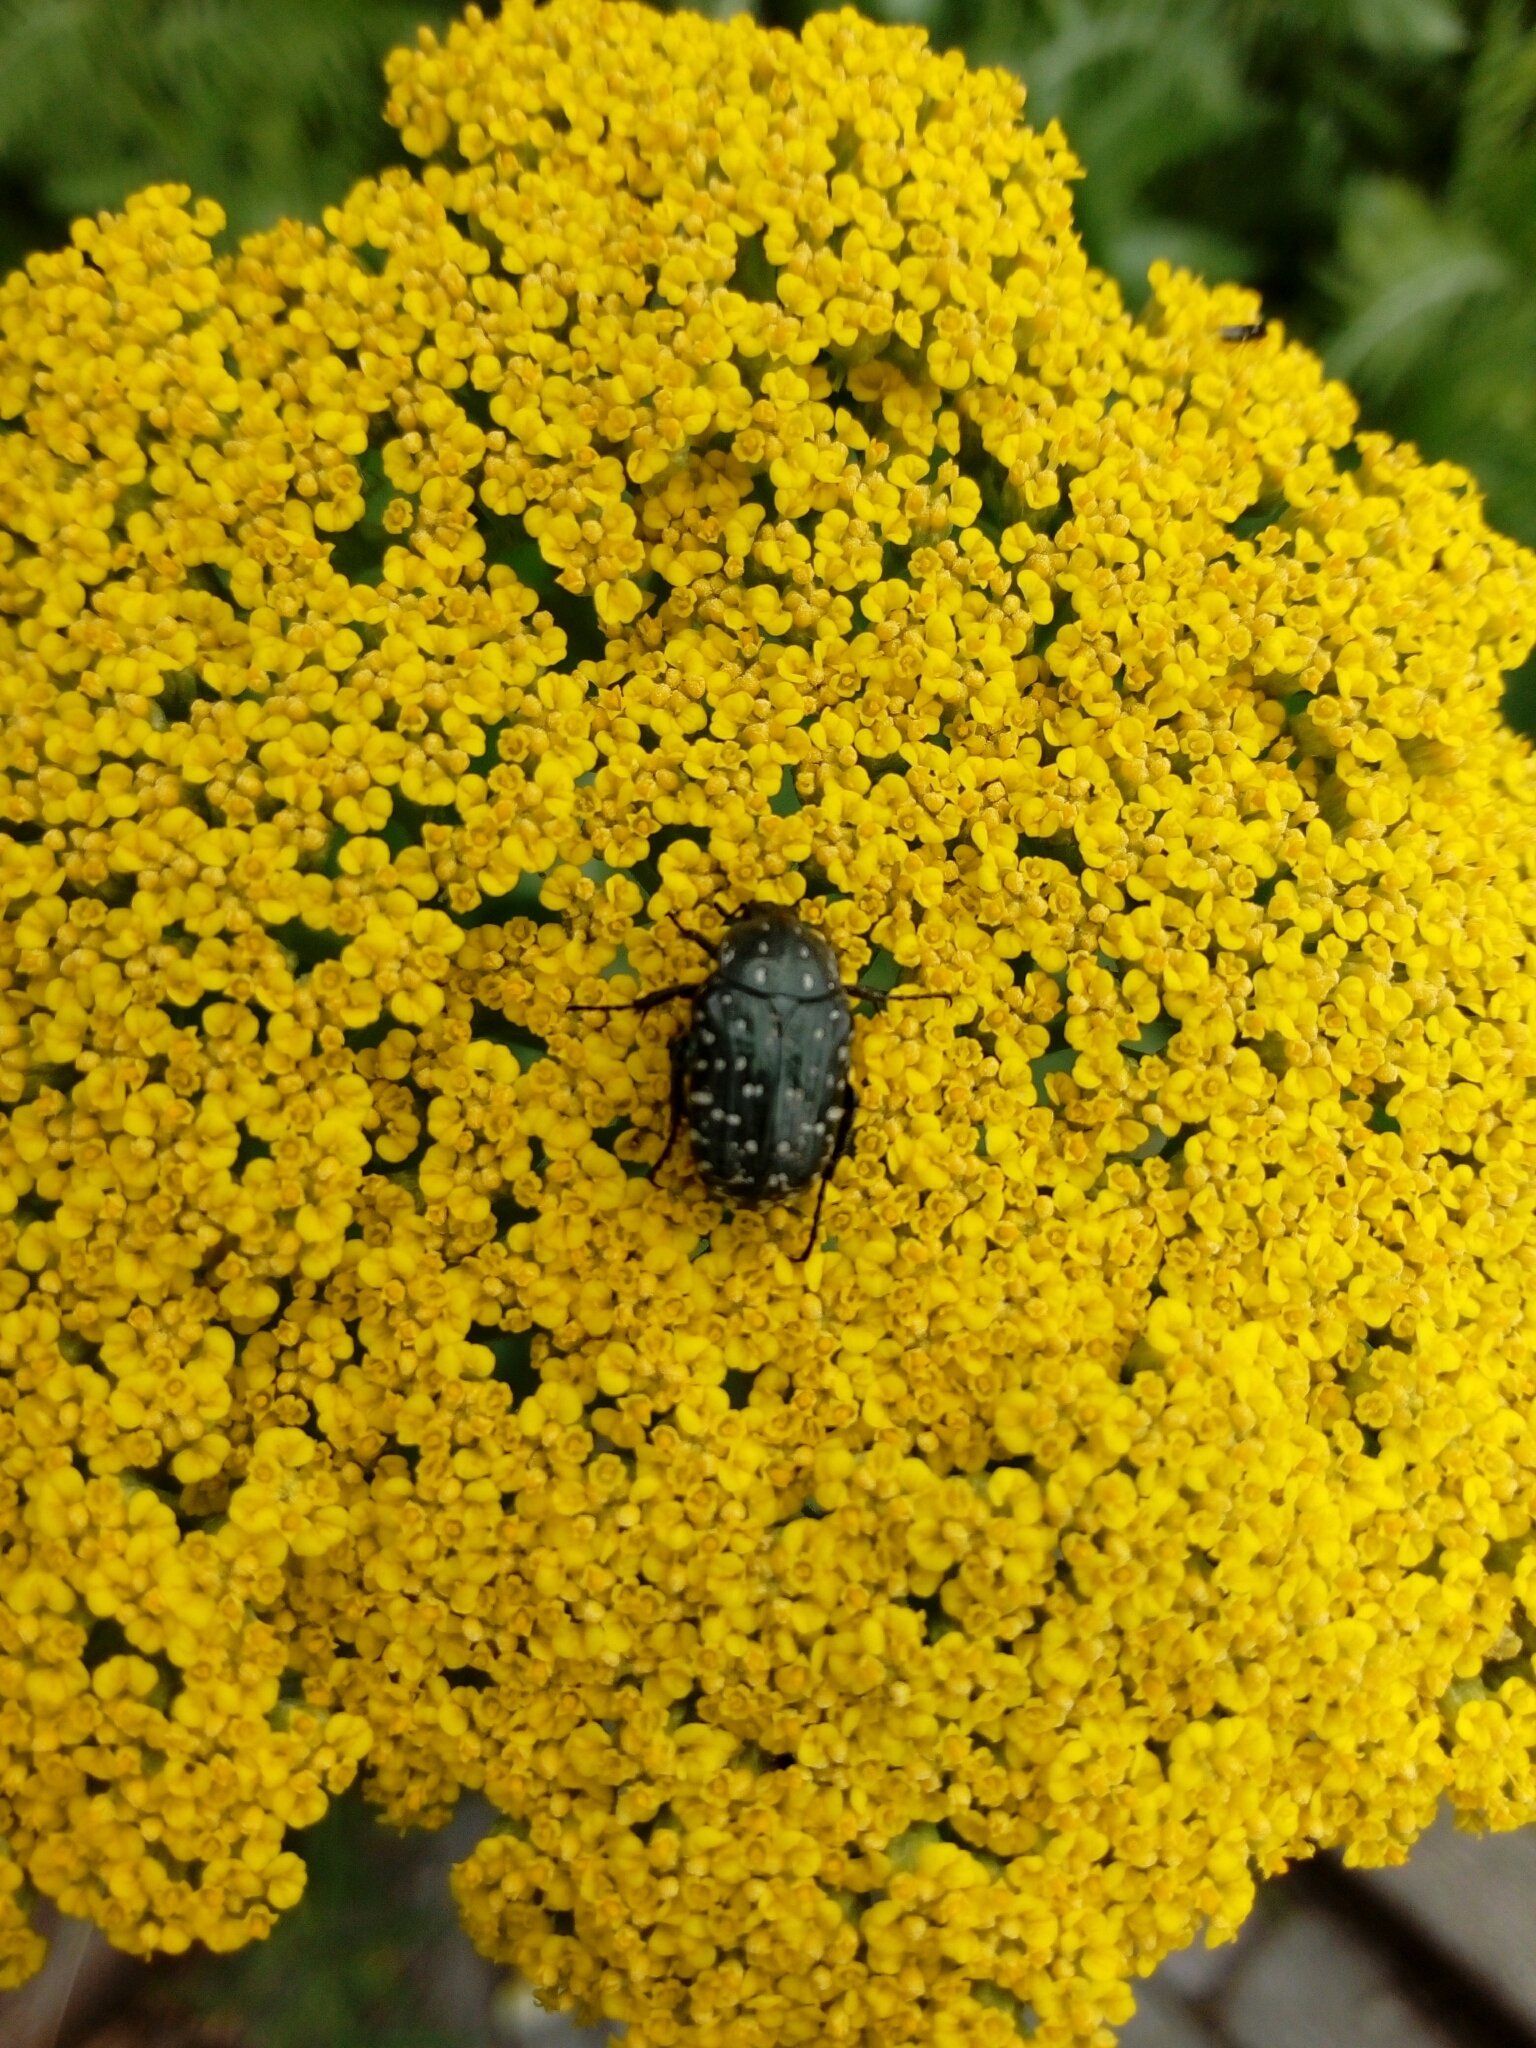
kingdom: Animalia
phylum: Arthropoda
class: Insecta
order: Coleoptera
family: Scarabaeidae
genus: Oxythyrea
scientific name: Oxythyrea funesta
